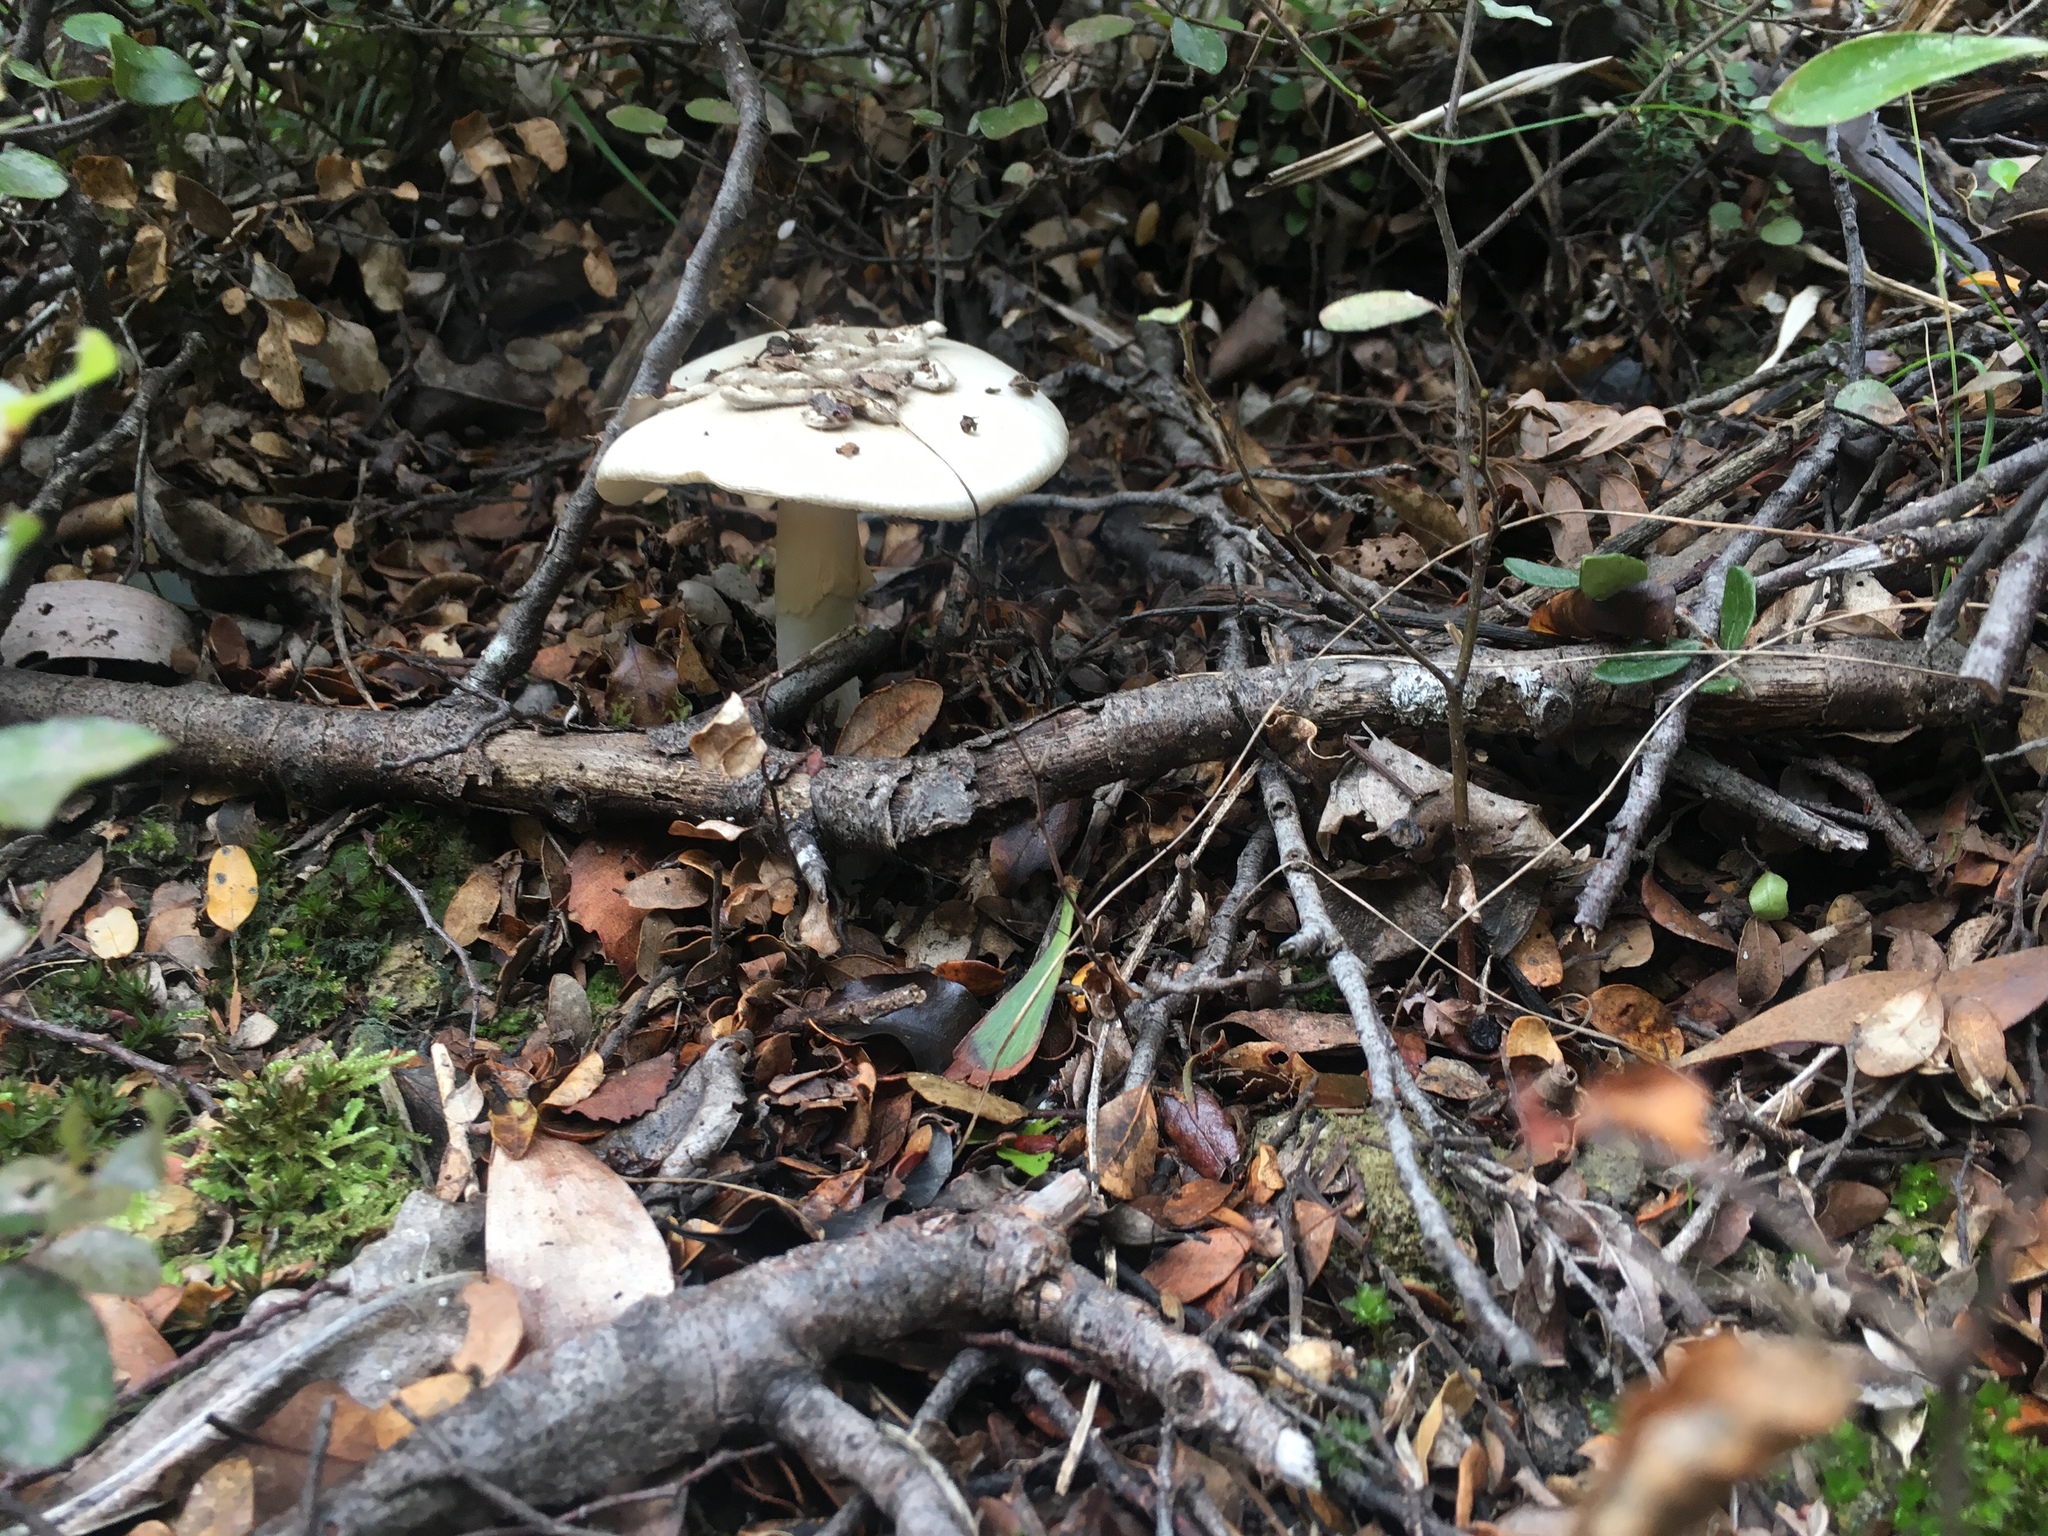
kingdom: Fungi
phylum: Basidiomycota
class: Agaricomycetes
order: Agaricales
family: Amanitaceae
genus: Amanita
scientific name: Amanita nothofagi
